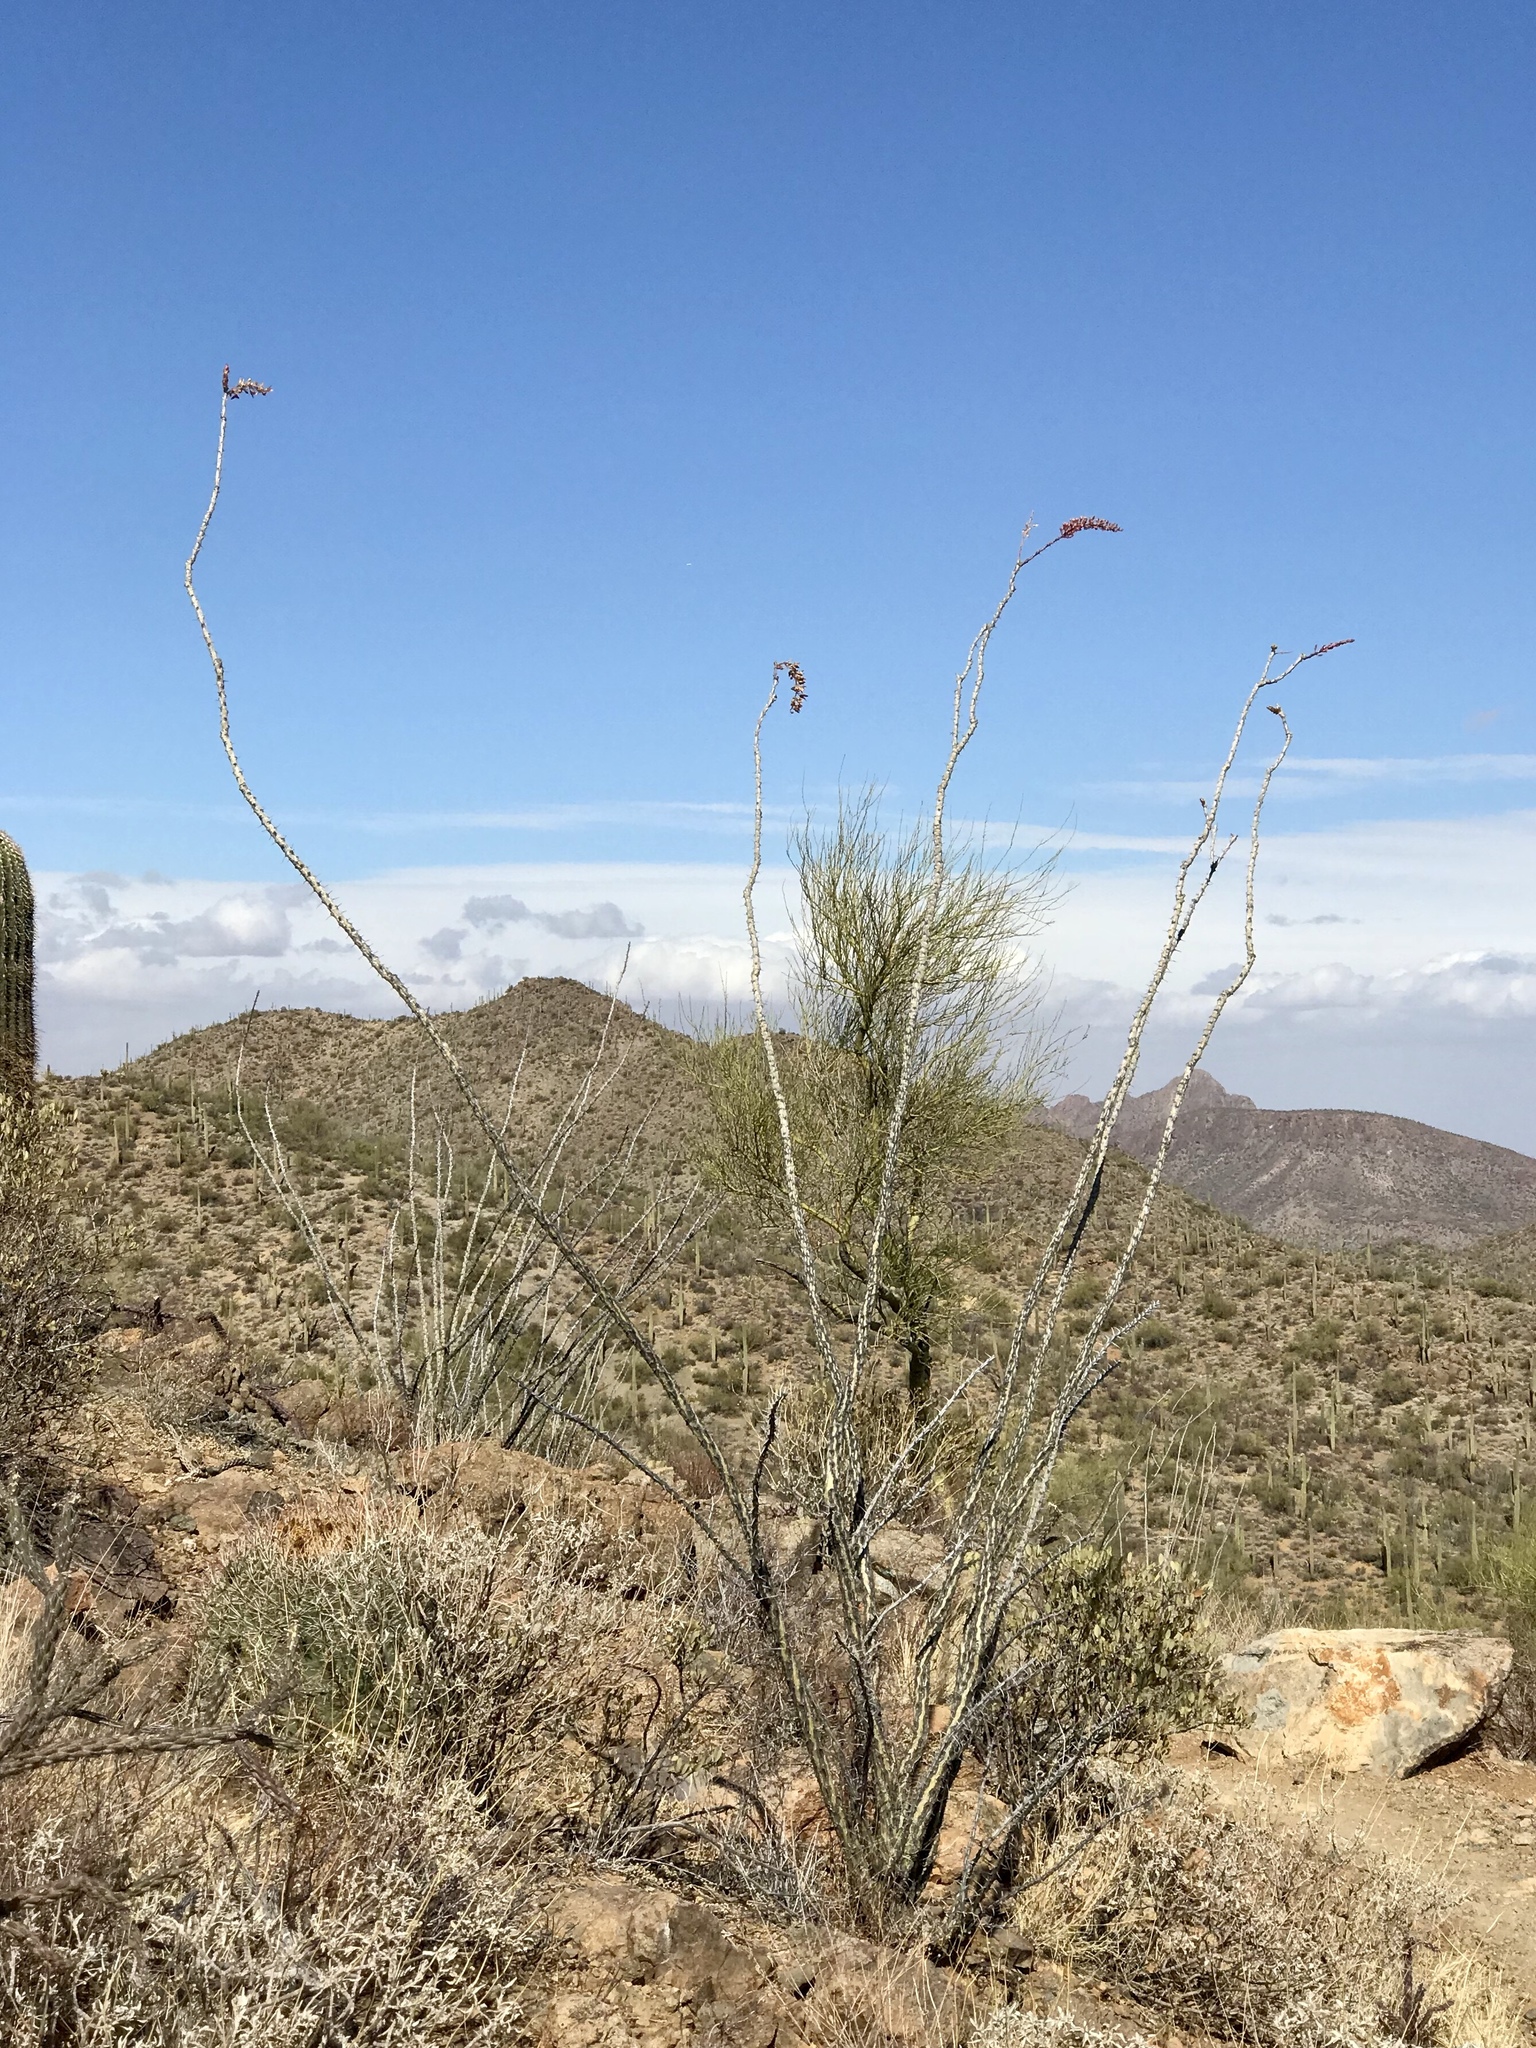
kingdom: Plantae
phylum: Tracheophyta
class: Magnoliopsida
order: Ericales
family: Fouquieriaceae
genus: Fouquieria
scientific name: Fouquieria splendens
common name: Vine-cactus
